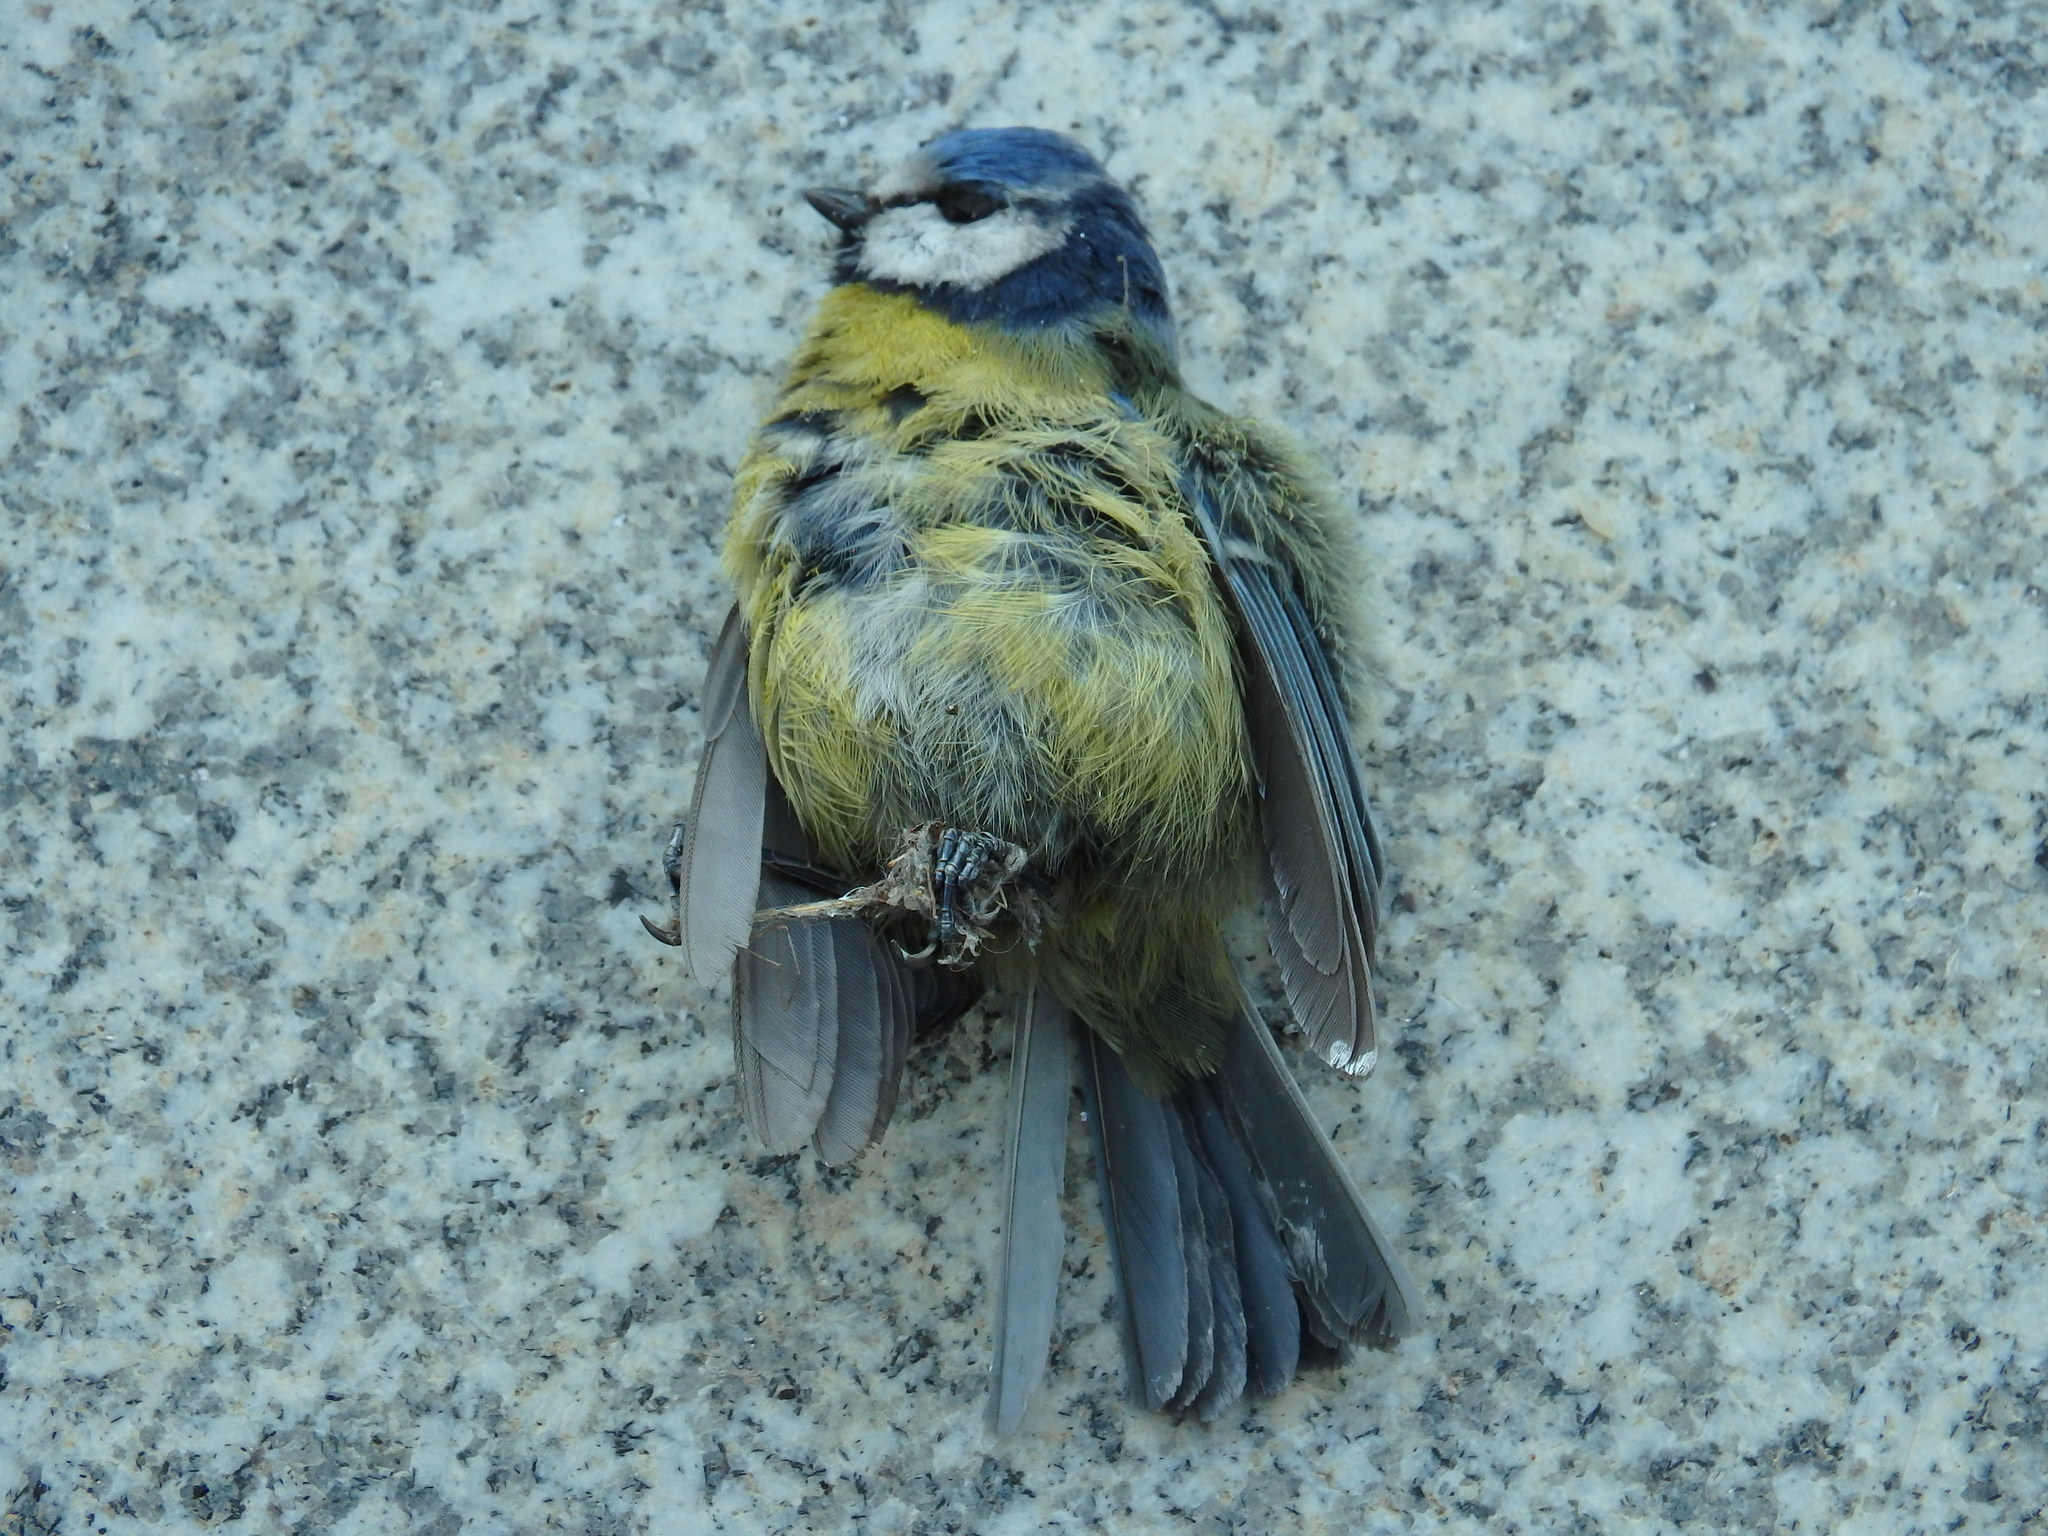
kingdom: Animalia
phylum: Chordata
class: Aves
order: Passeriformes
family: Paridae
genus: Cyanistes
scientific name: Cyanistes caeruleus
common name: Eurasian blue tit
